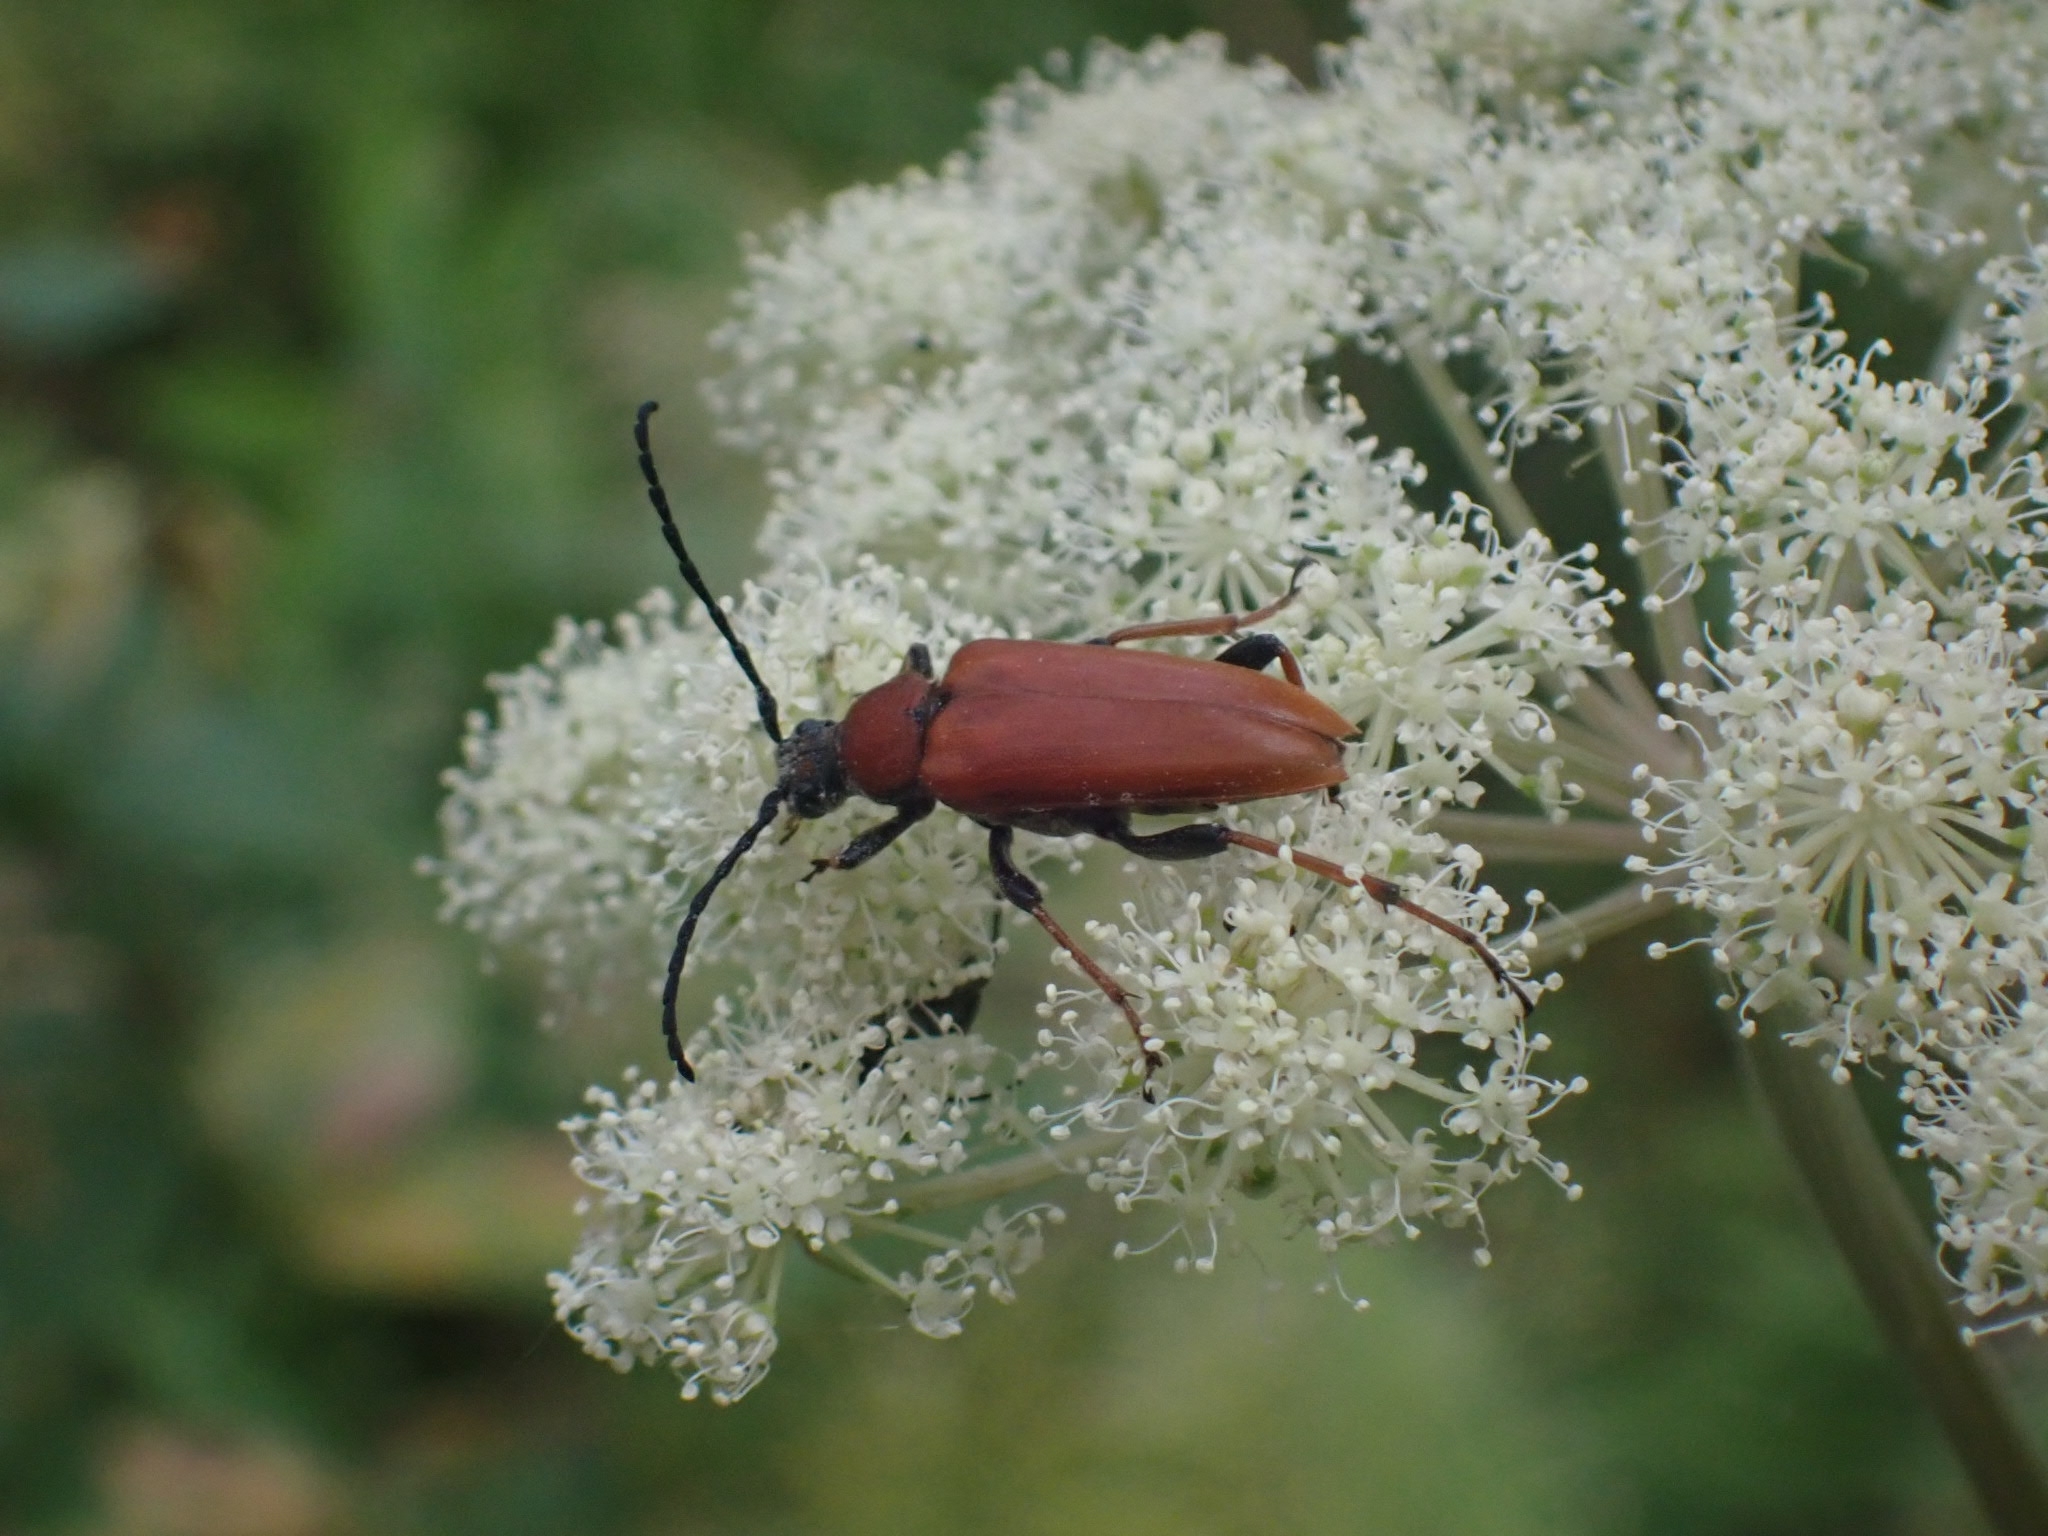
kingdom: Animalia
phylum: Arthropoda
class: Insecta
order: Coleoptera
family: Cerambycidae
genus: Stictoleptura
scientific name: Stictoleptura rubra
